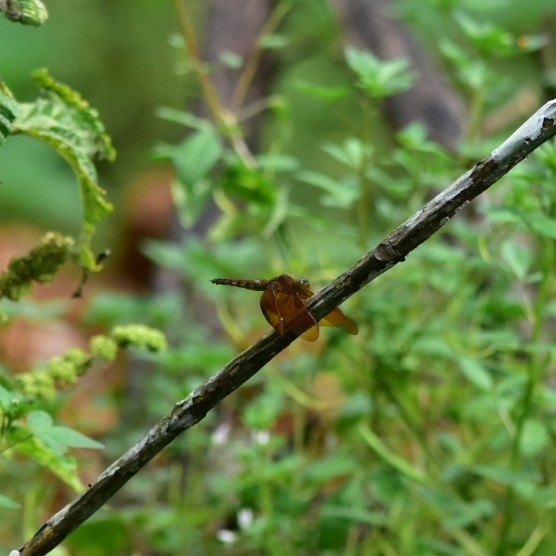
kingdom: Animalia
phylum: Arthropoda
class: Insecta
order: Odonata
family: Libellulidae
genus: Neurothemis
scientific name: Neurothemis fulvia
